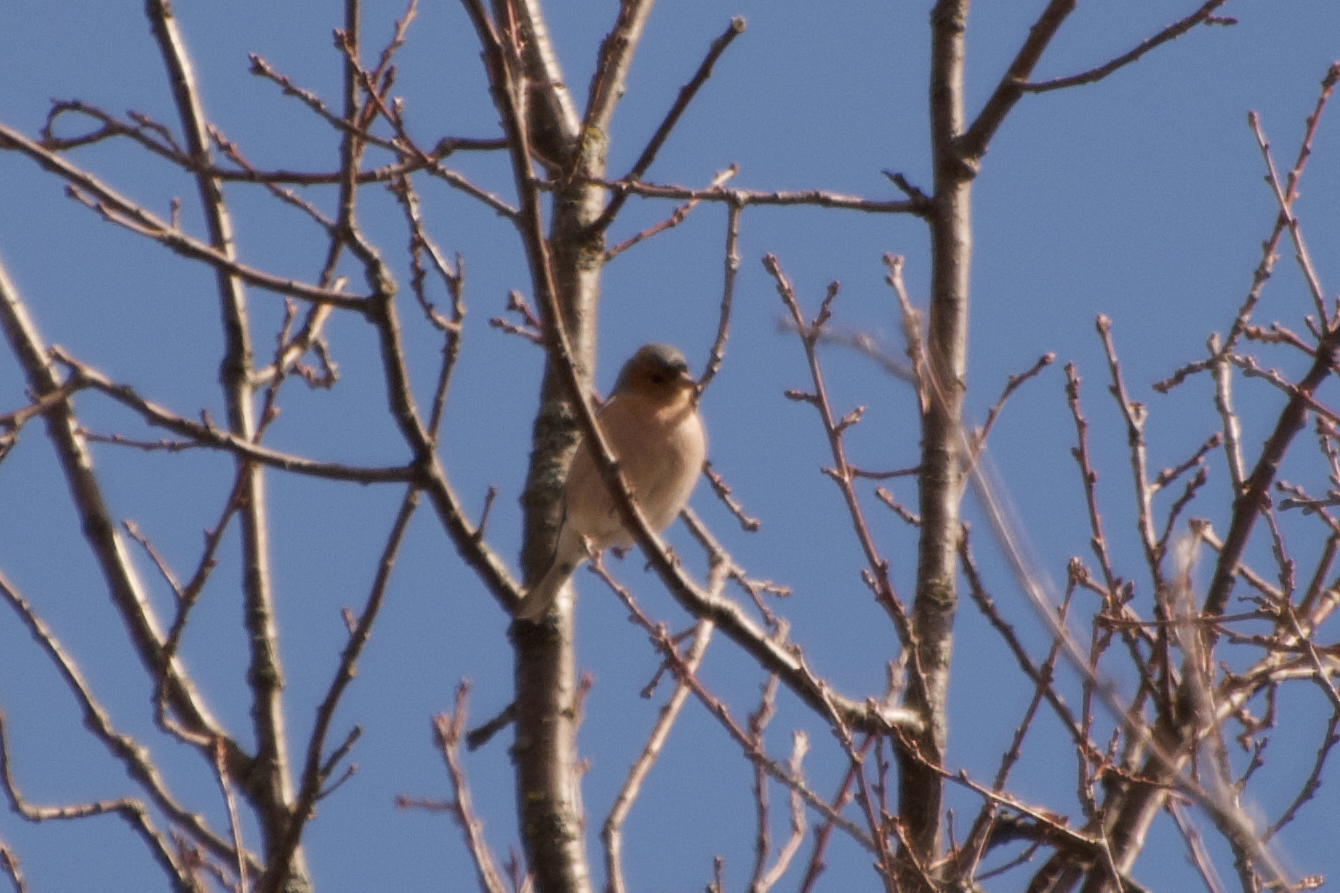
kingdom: Animalia
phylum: Chordata
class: Aves
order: Passeriformes
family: Fringillidae
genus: Fringilla
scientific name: Fringilla coelebs
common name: Common chaffinch
